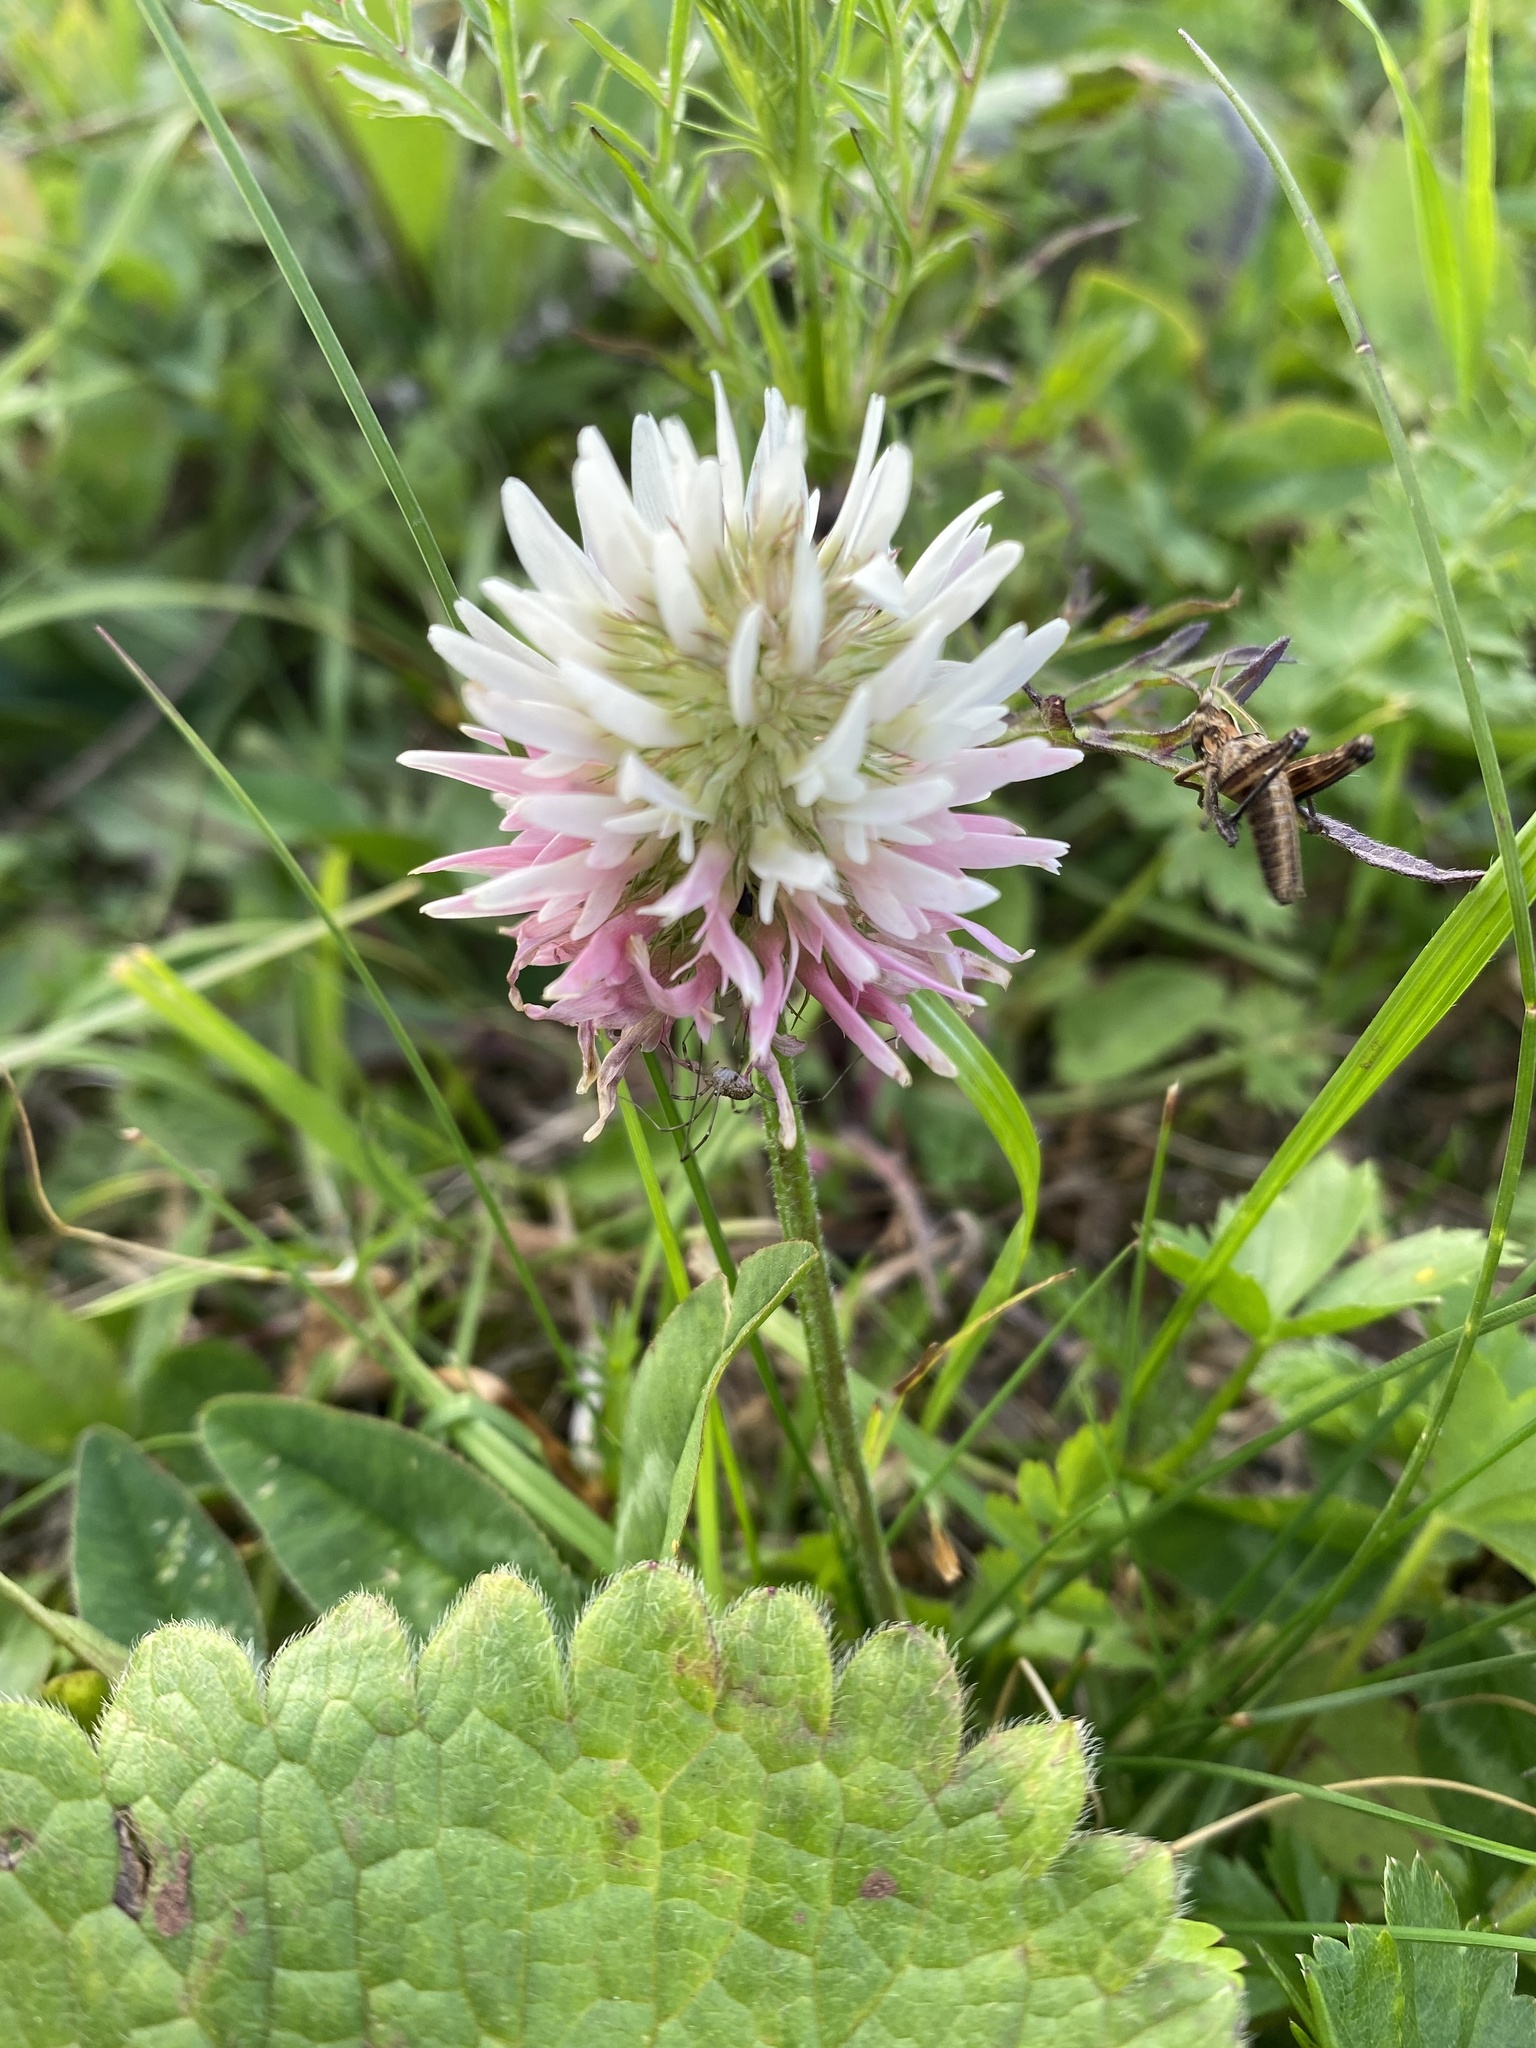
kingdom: Plantae
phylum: Tracheophyta
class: Magnoliopsida
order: Fabales
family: Fabaceae
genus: Trifolium
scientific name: Trifolium ambiguum
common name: Kura clover
